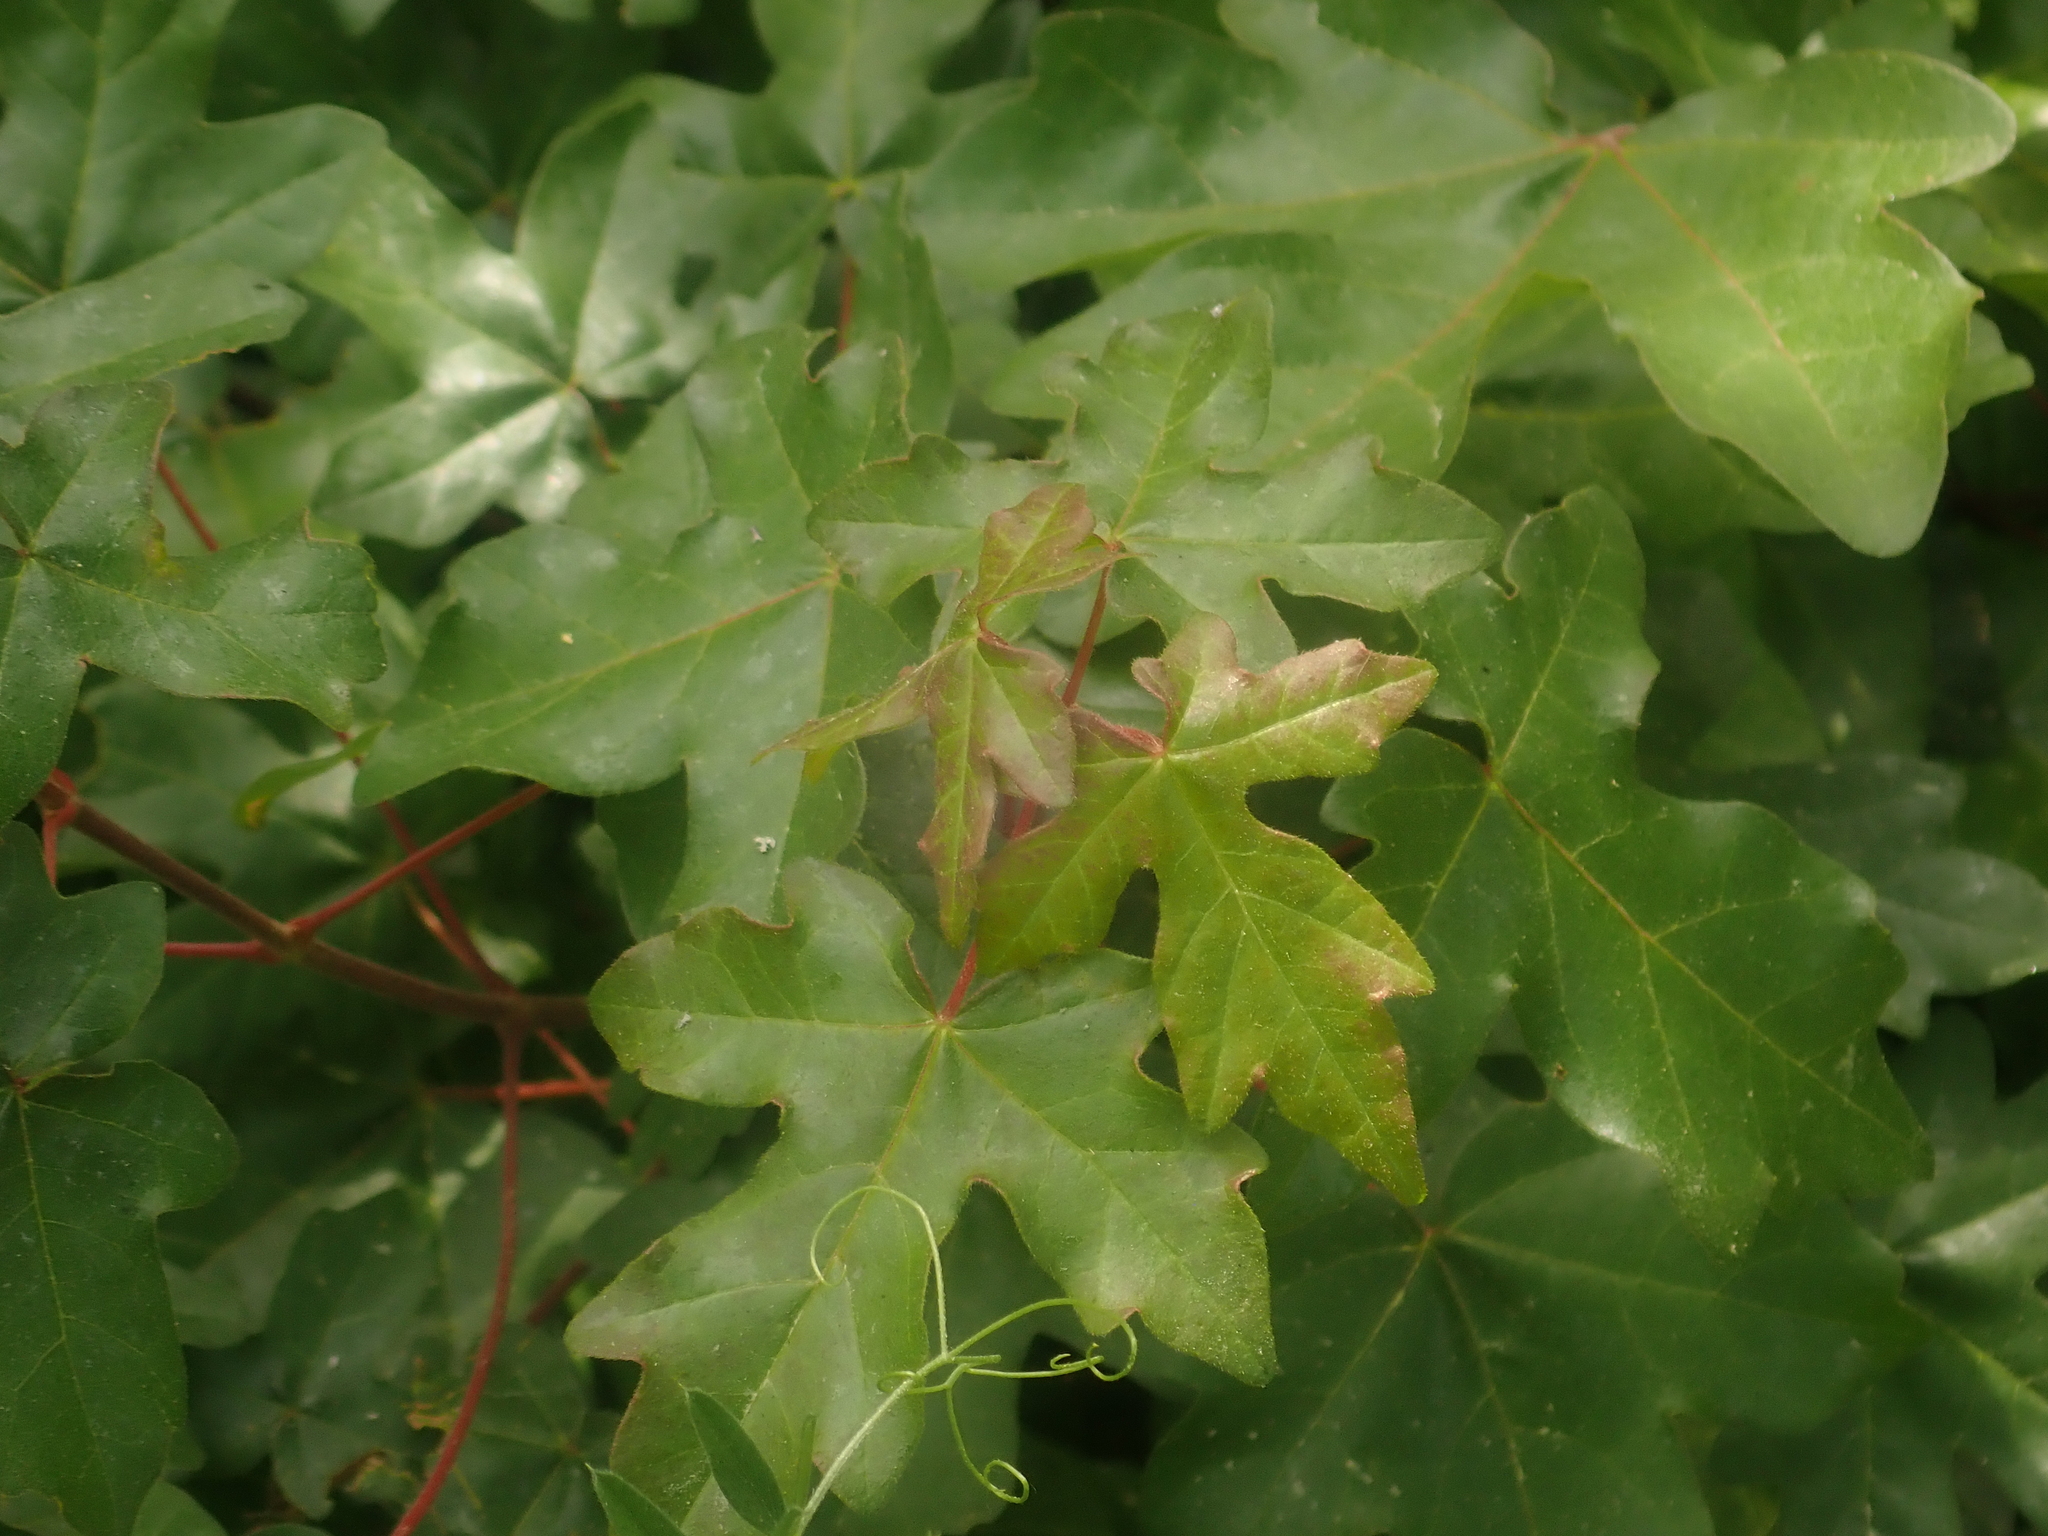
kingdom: Plantae
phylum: Tracheophyta
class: Magnoliopsida
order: Sapindales
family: Sapindaceae
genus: Acer
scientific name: Acer campestre
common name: Field maple
